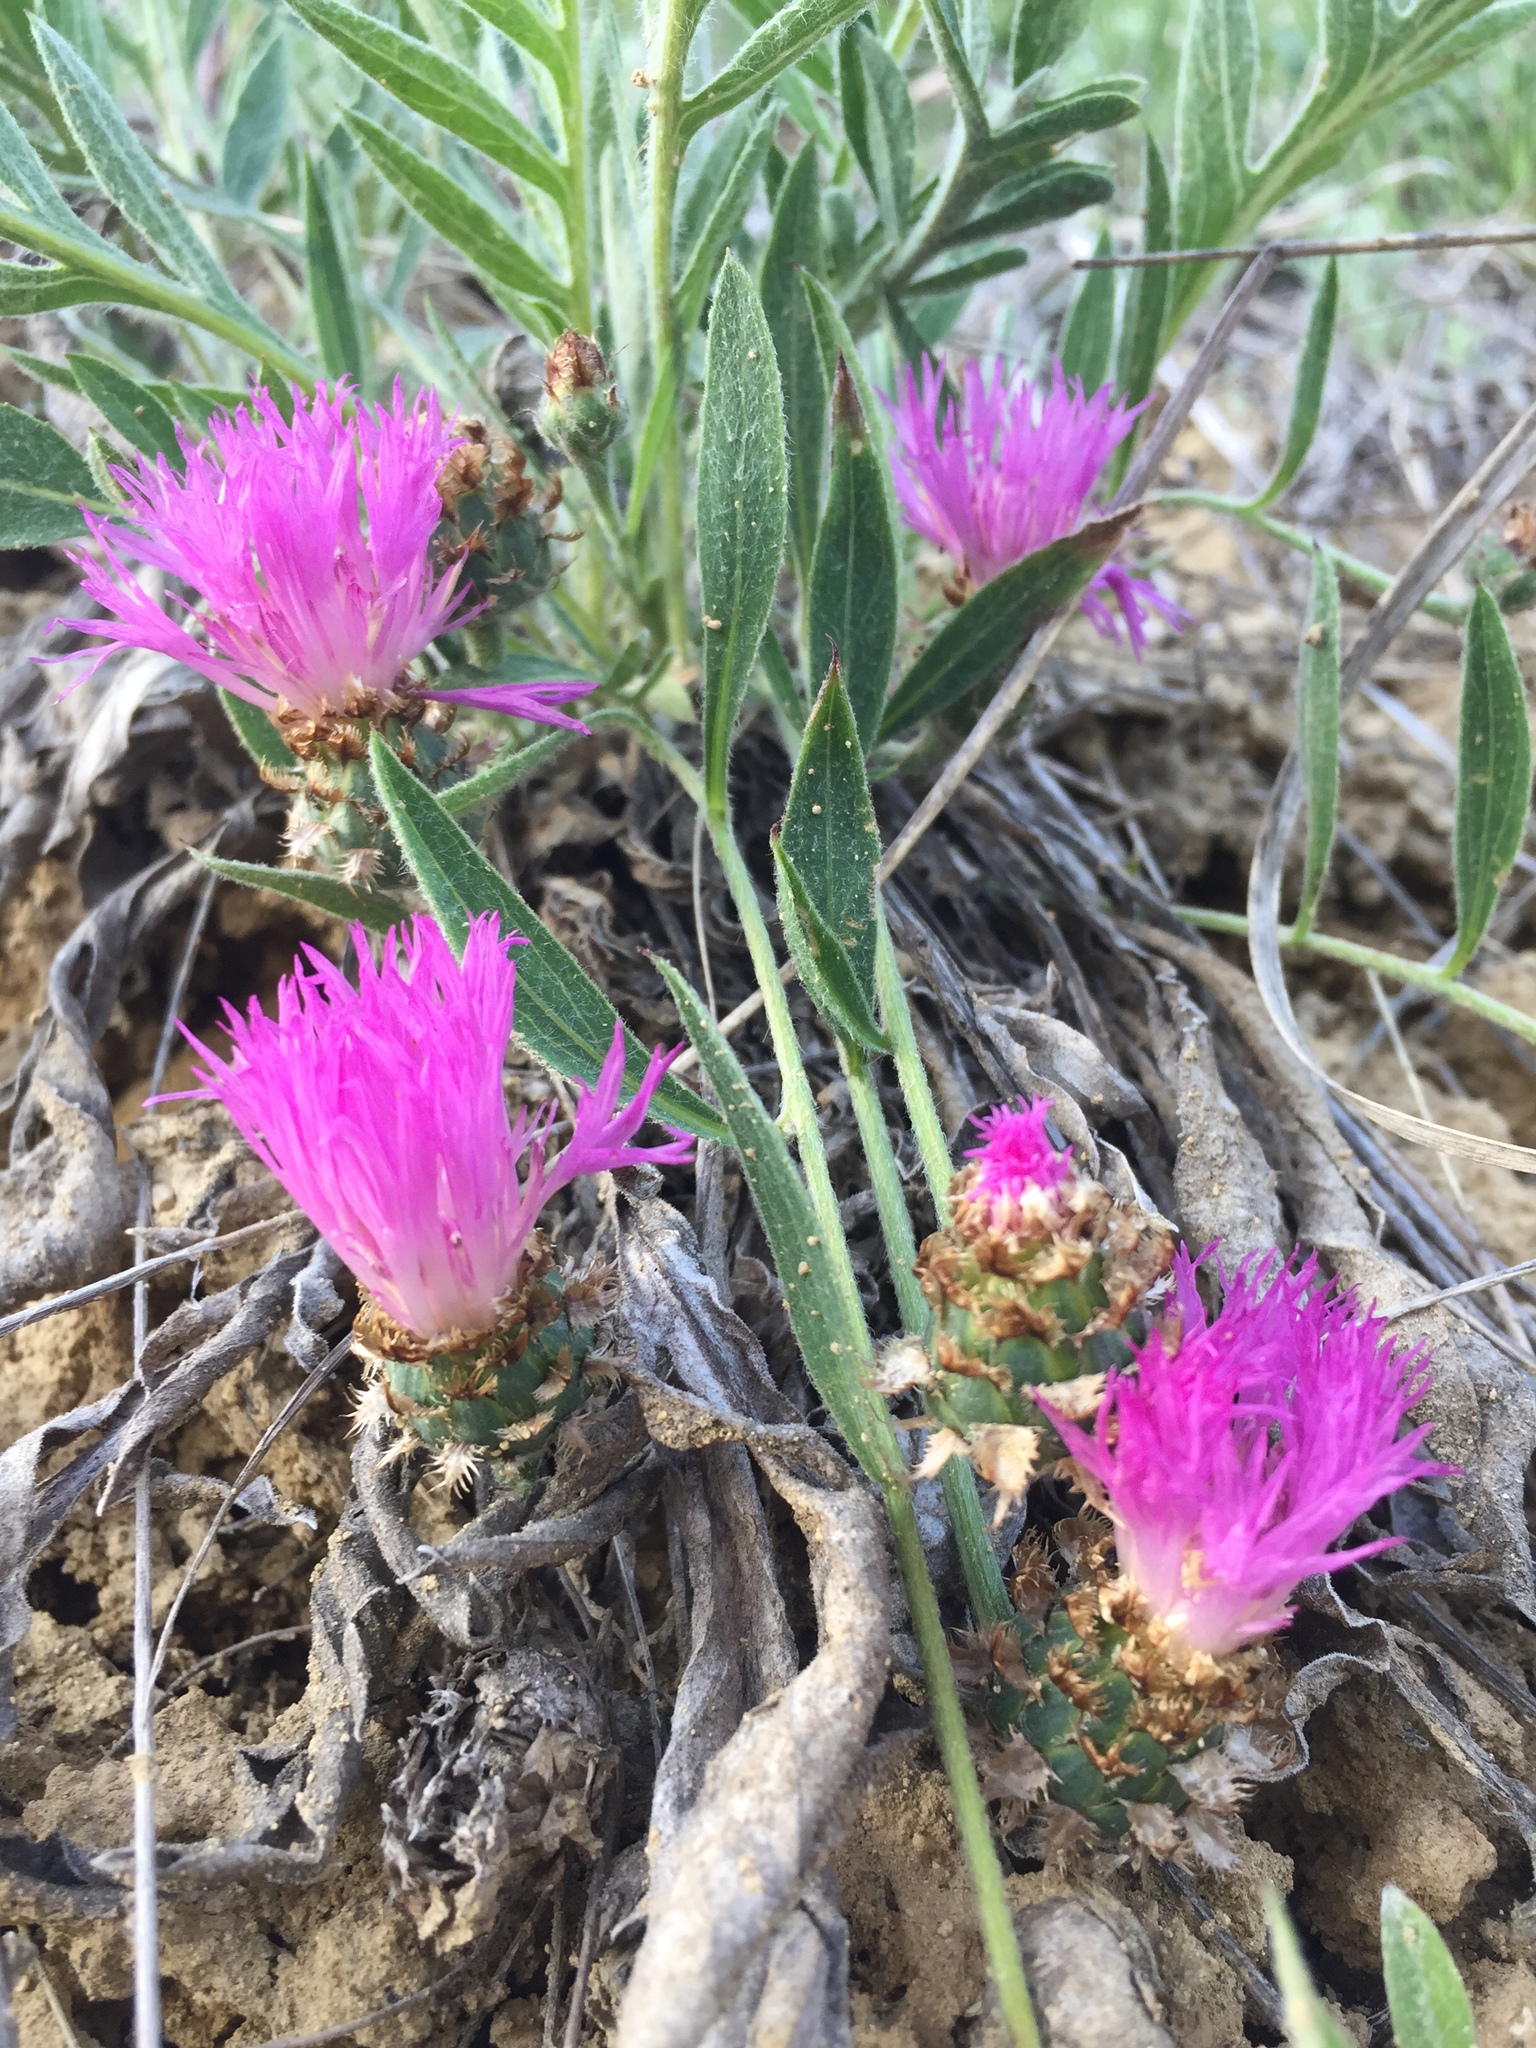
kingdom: Plantae
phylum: Tracheophyta
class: Magnoliopsida
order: Asterales
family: Asteraceae
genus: Psephellus
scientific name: Psephellus marschallianus
